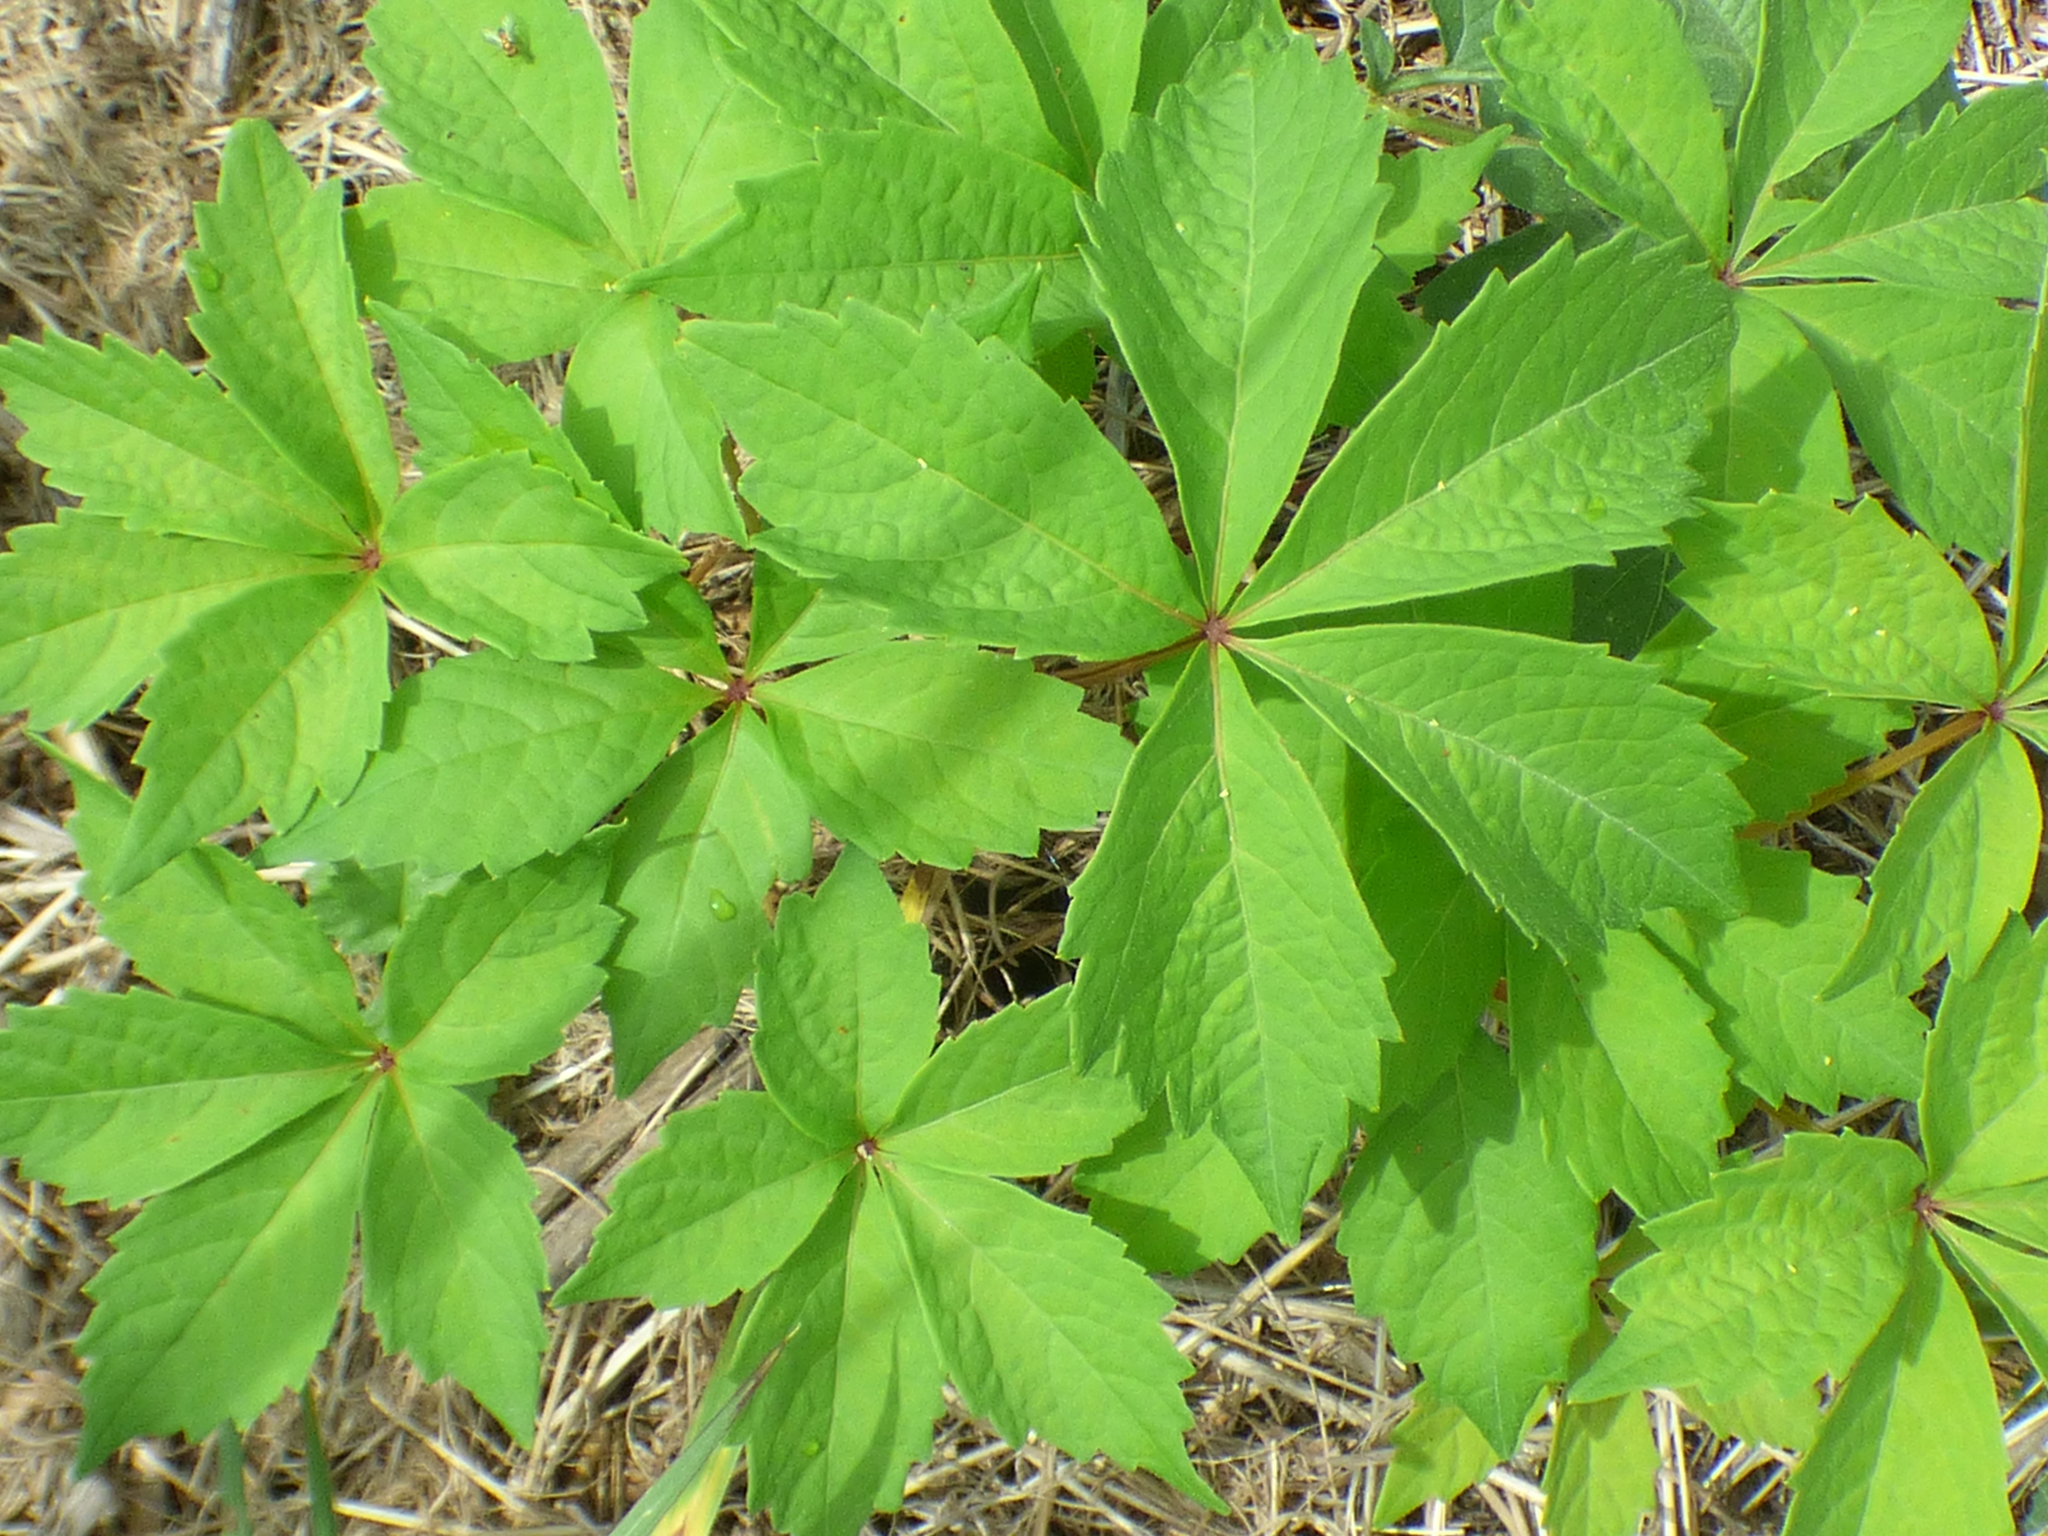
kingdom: Plantae
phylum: Tracheophyta
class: Magnoliopsida
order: Vitales
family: Vitaceae
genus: Parthenocissus
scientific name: Parthenocissus quinquefolia
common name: Virginia-creeper
